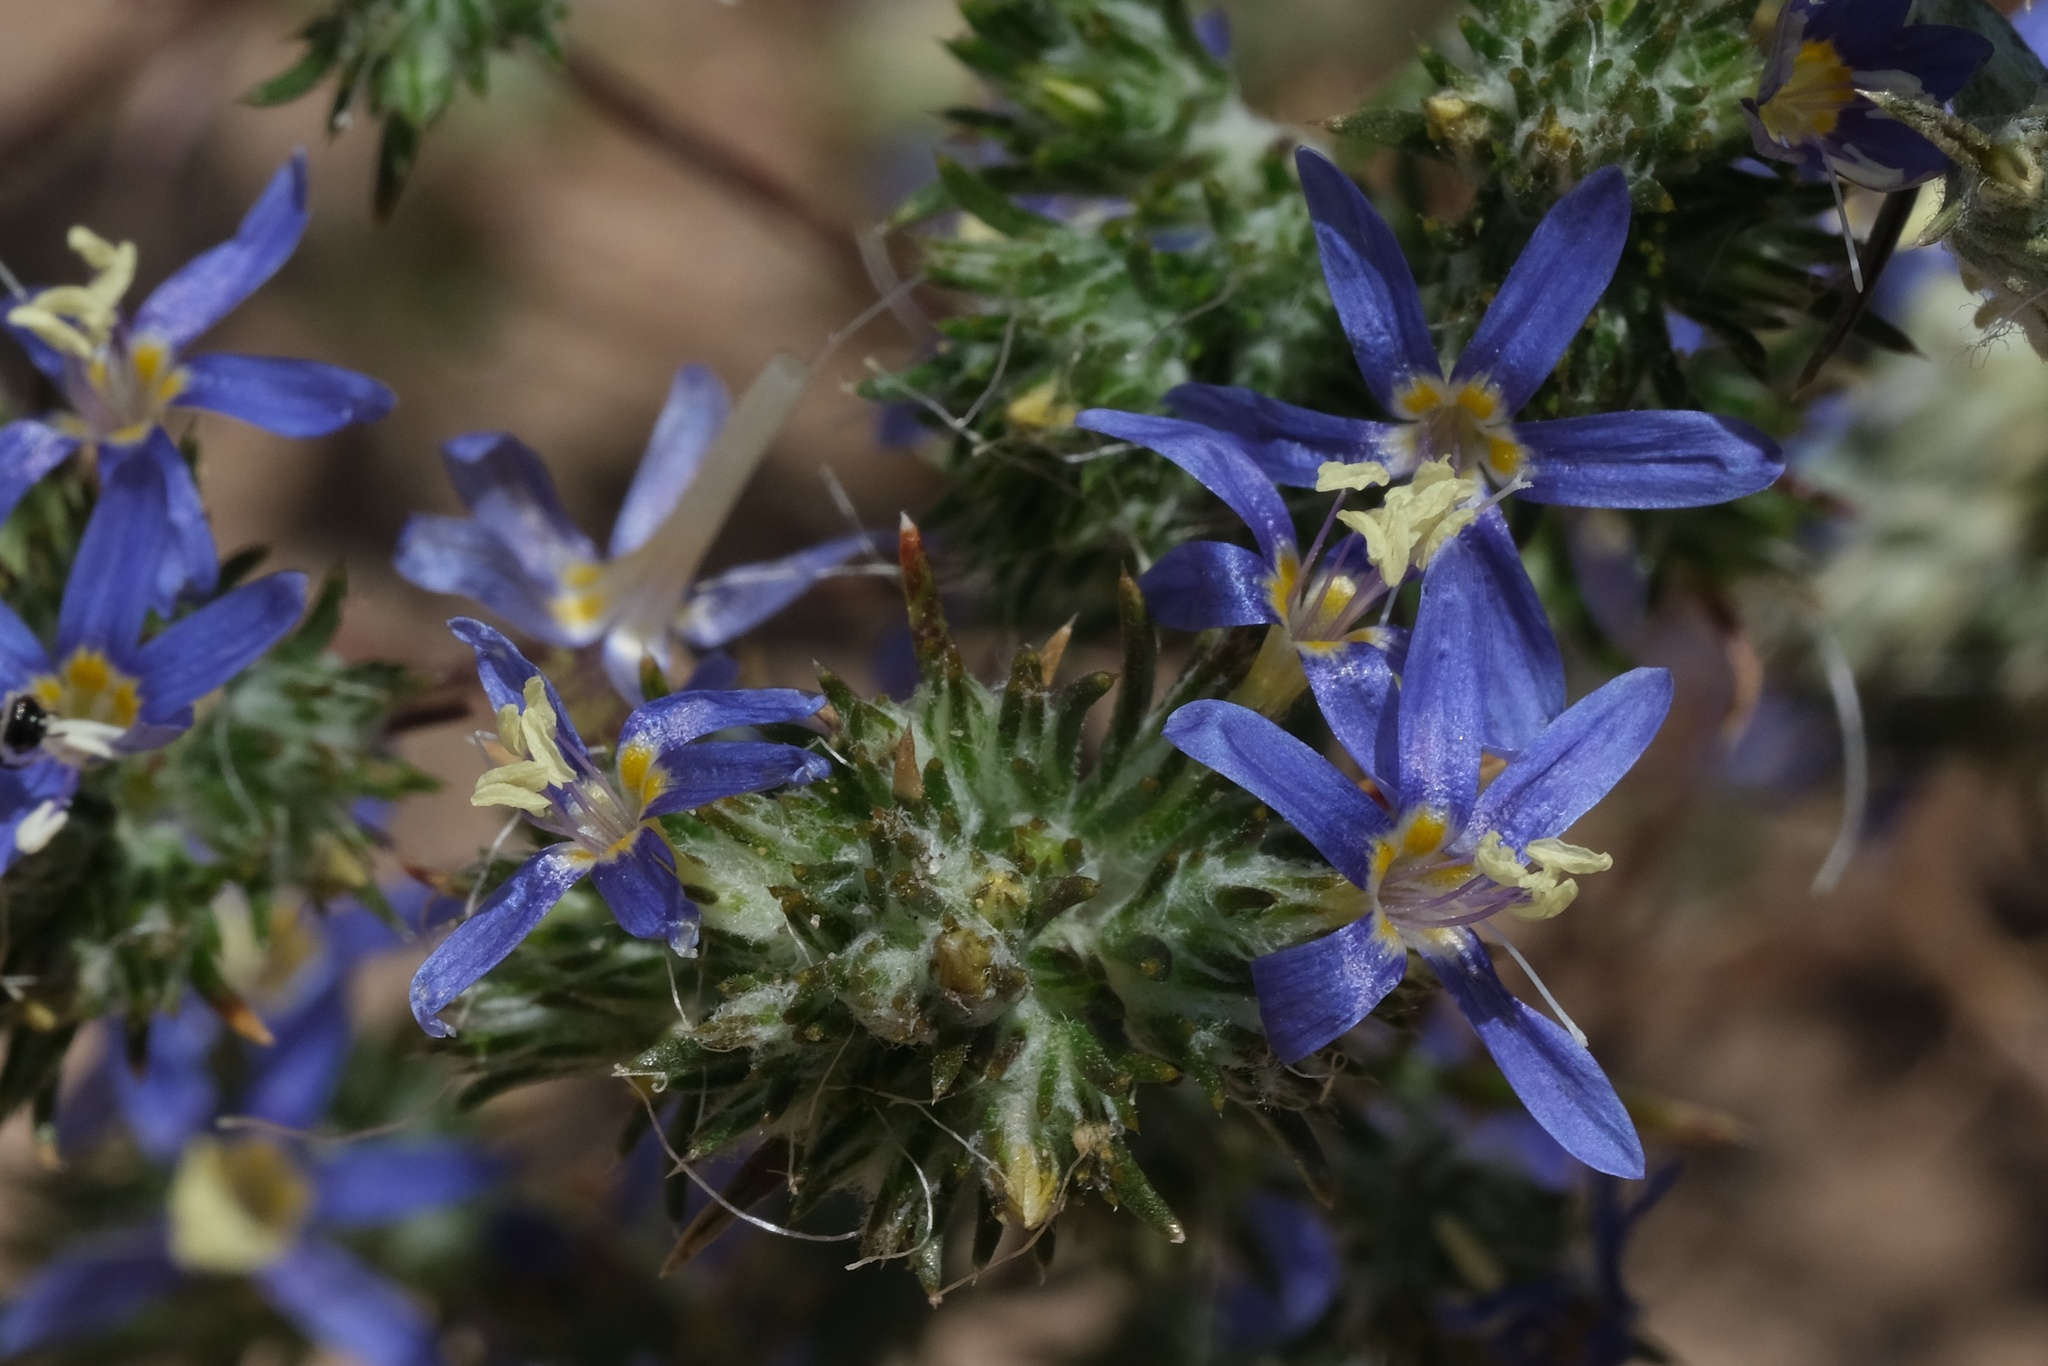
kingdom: Plantae
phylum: Tracheophyta
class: Magnoliopsida
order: Ericales
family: Polemoniaceae
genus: Eriastrum
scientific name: Eriastrum sapphirinum
